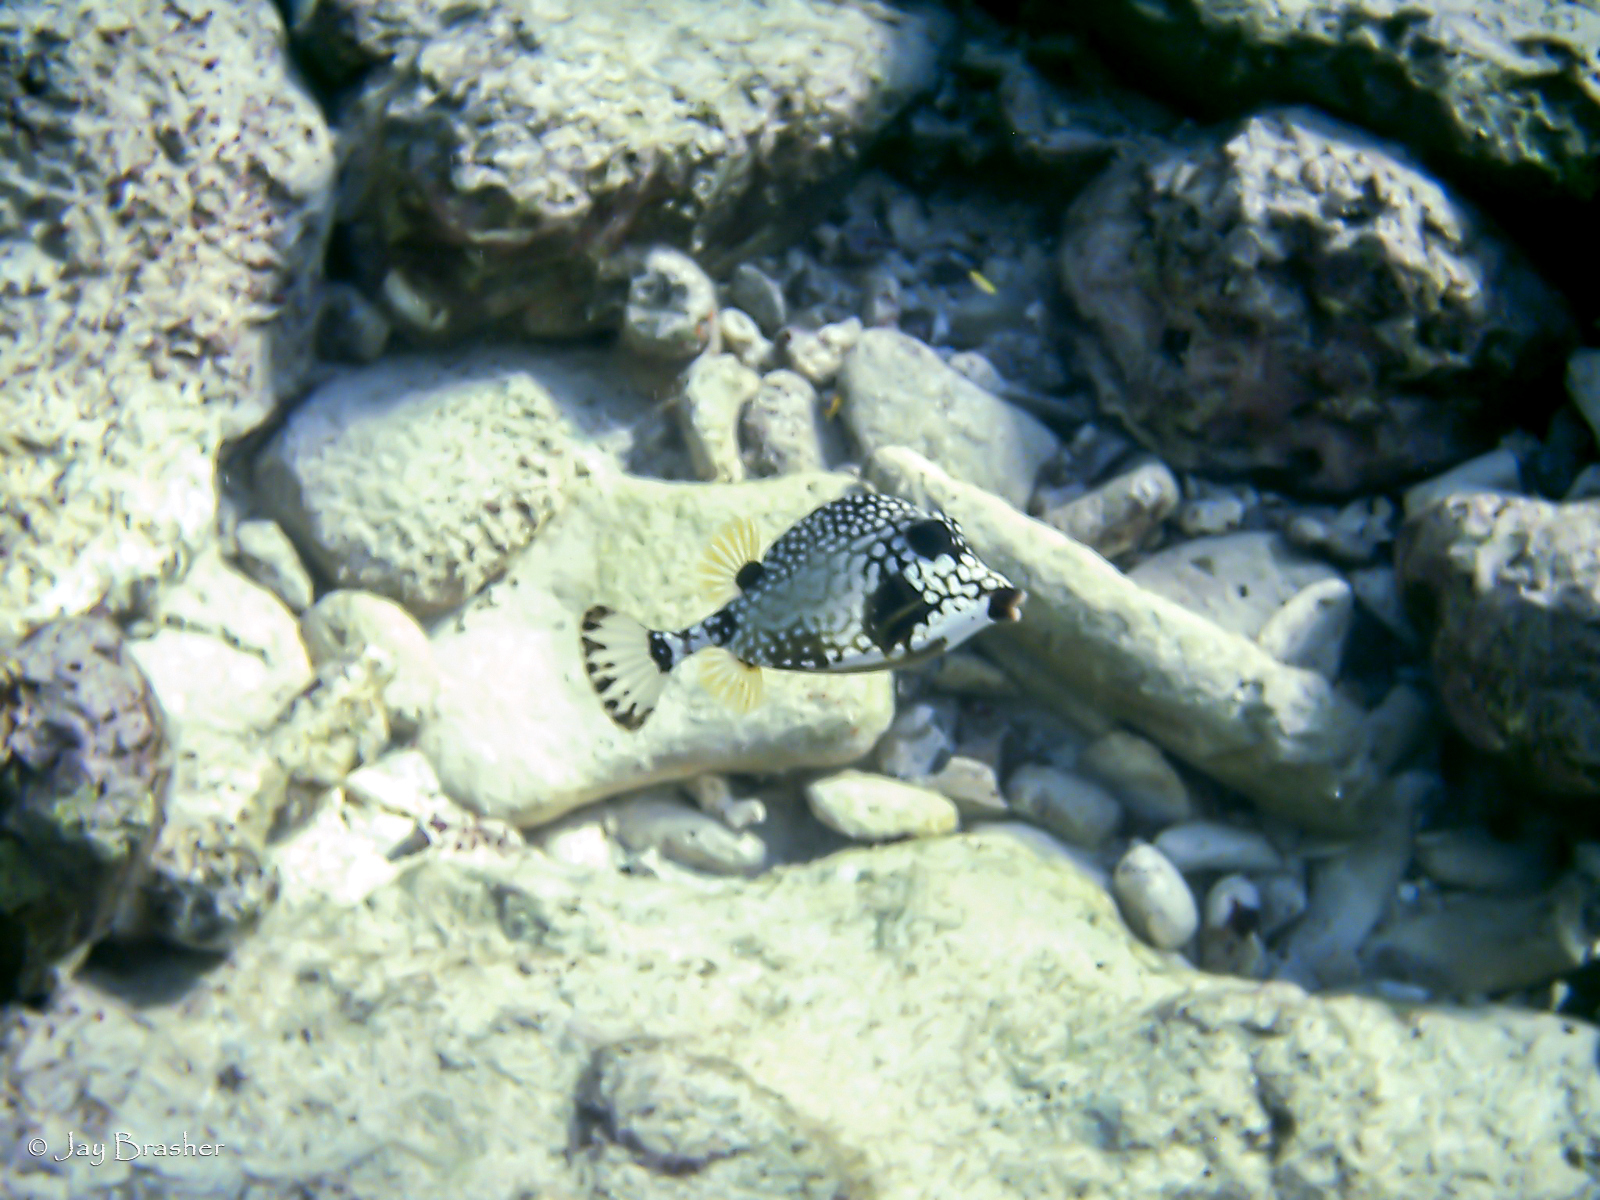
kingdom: Animalia
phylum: Chordata
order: Tetraodontiformes
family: Ostraciidae
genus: Lactophrys
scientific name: Lactophrys triqueter
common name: Smooth trunkfish
